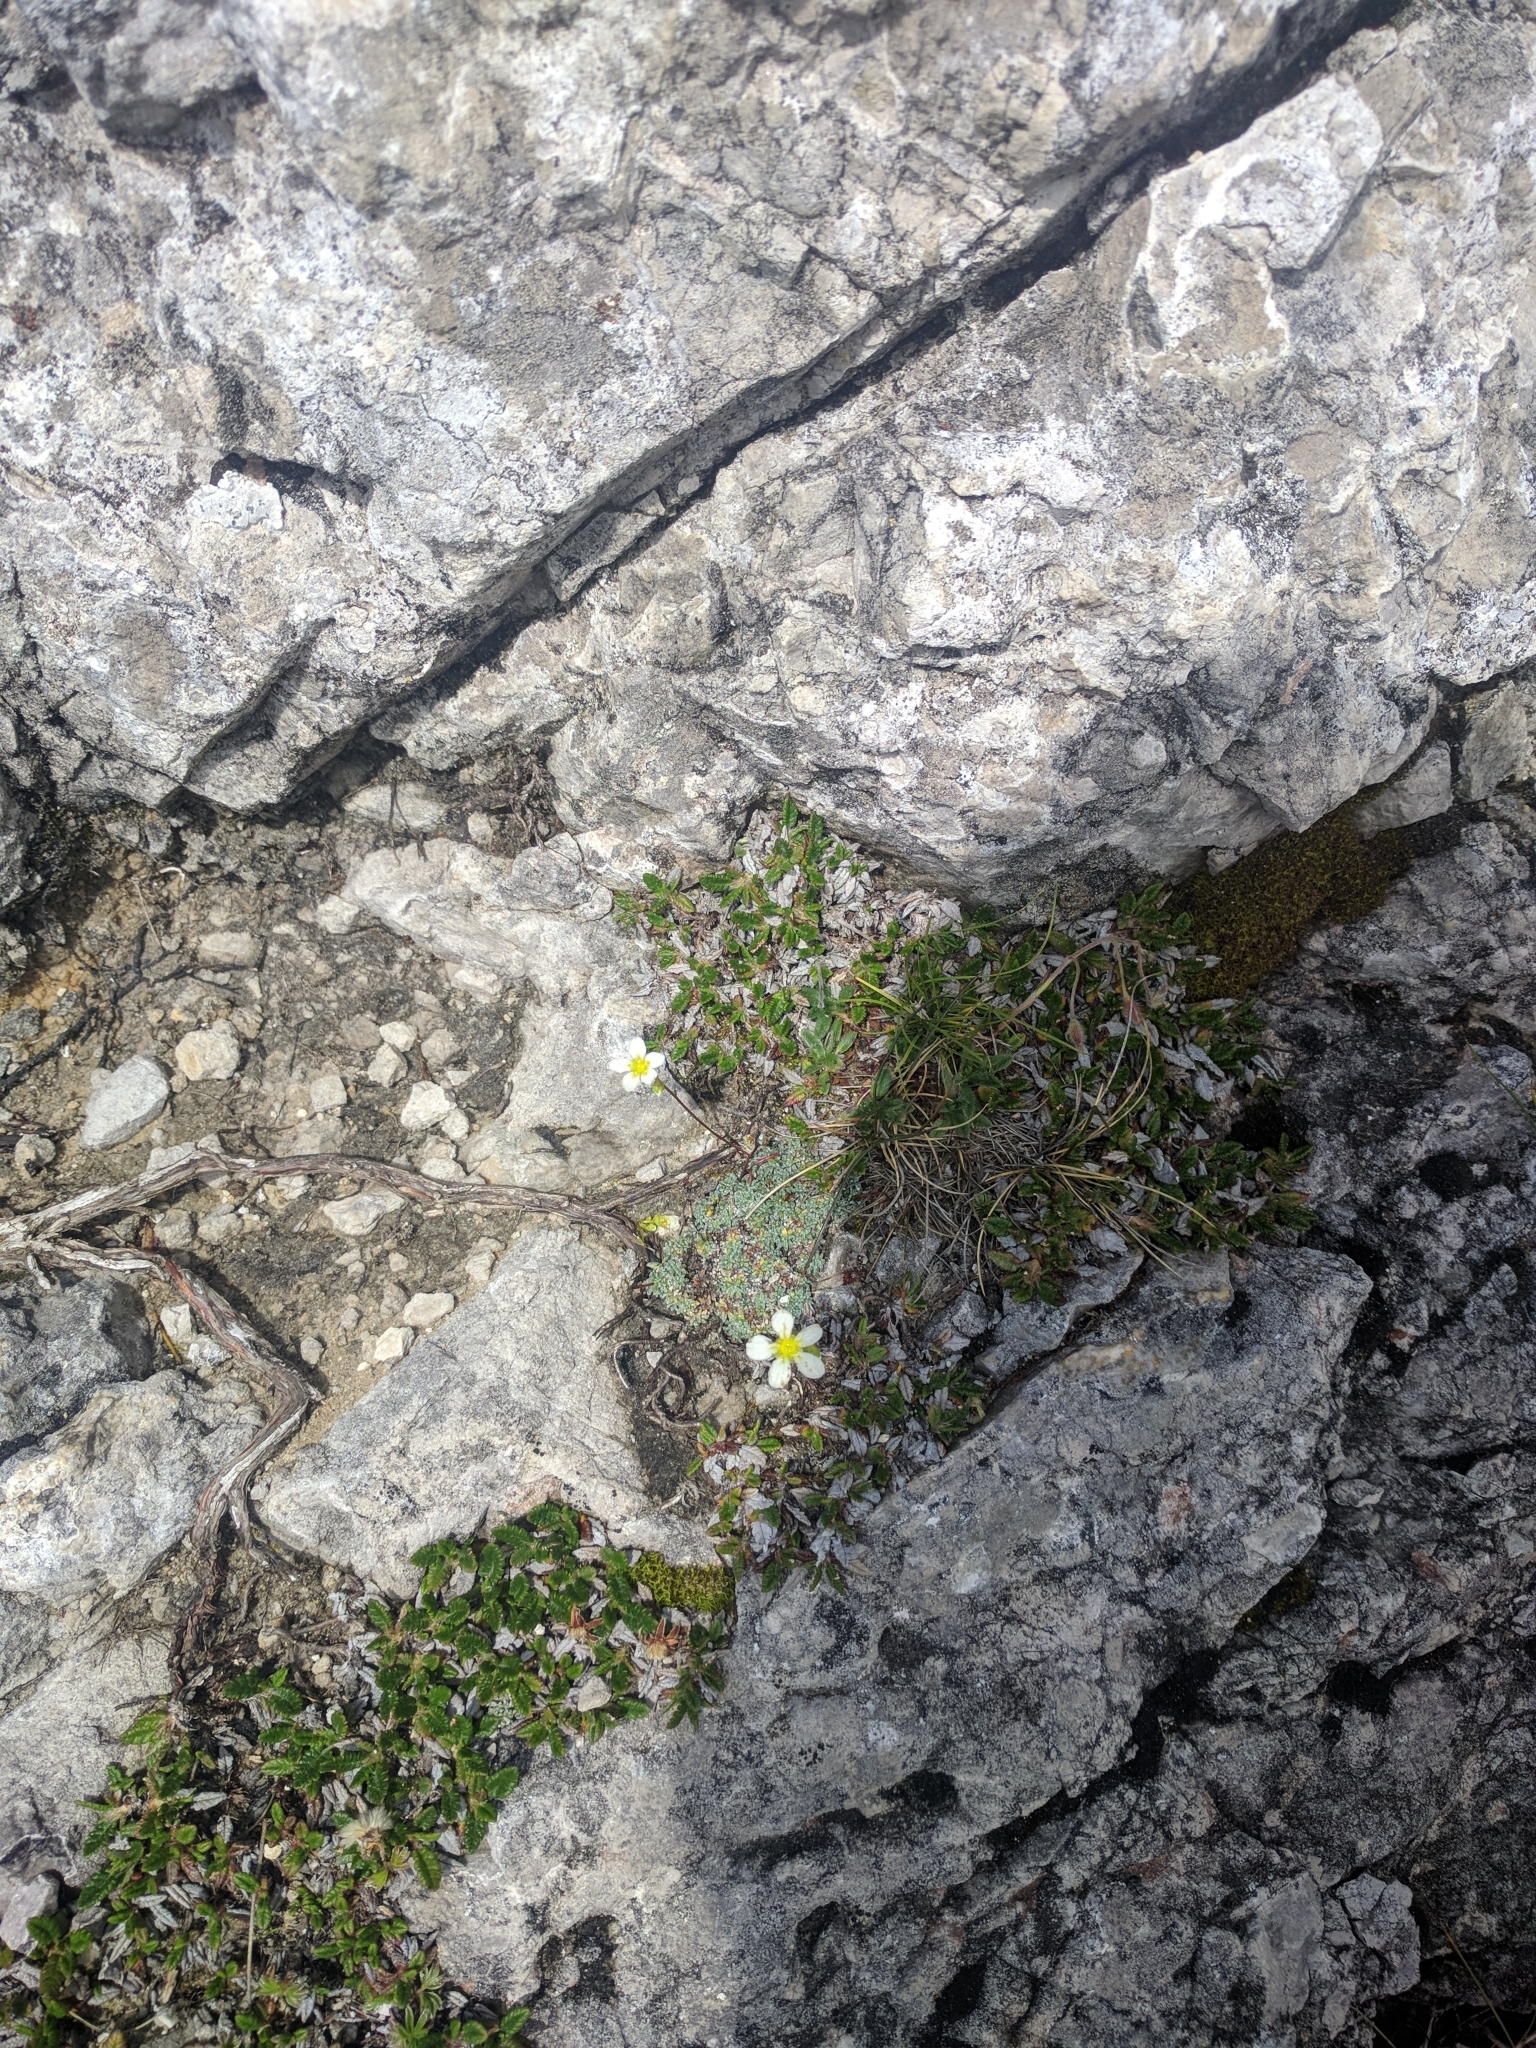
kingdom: Plantae
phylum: Tracheophyta
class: Magnoliopsida
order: Saxifragales
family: Saxifragaceae
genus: Saxifraga
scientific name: Saxifraga caesia
